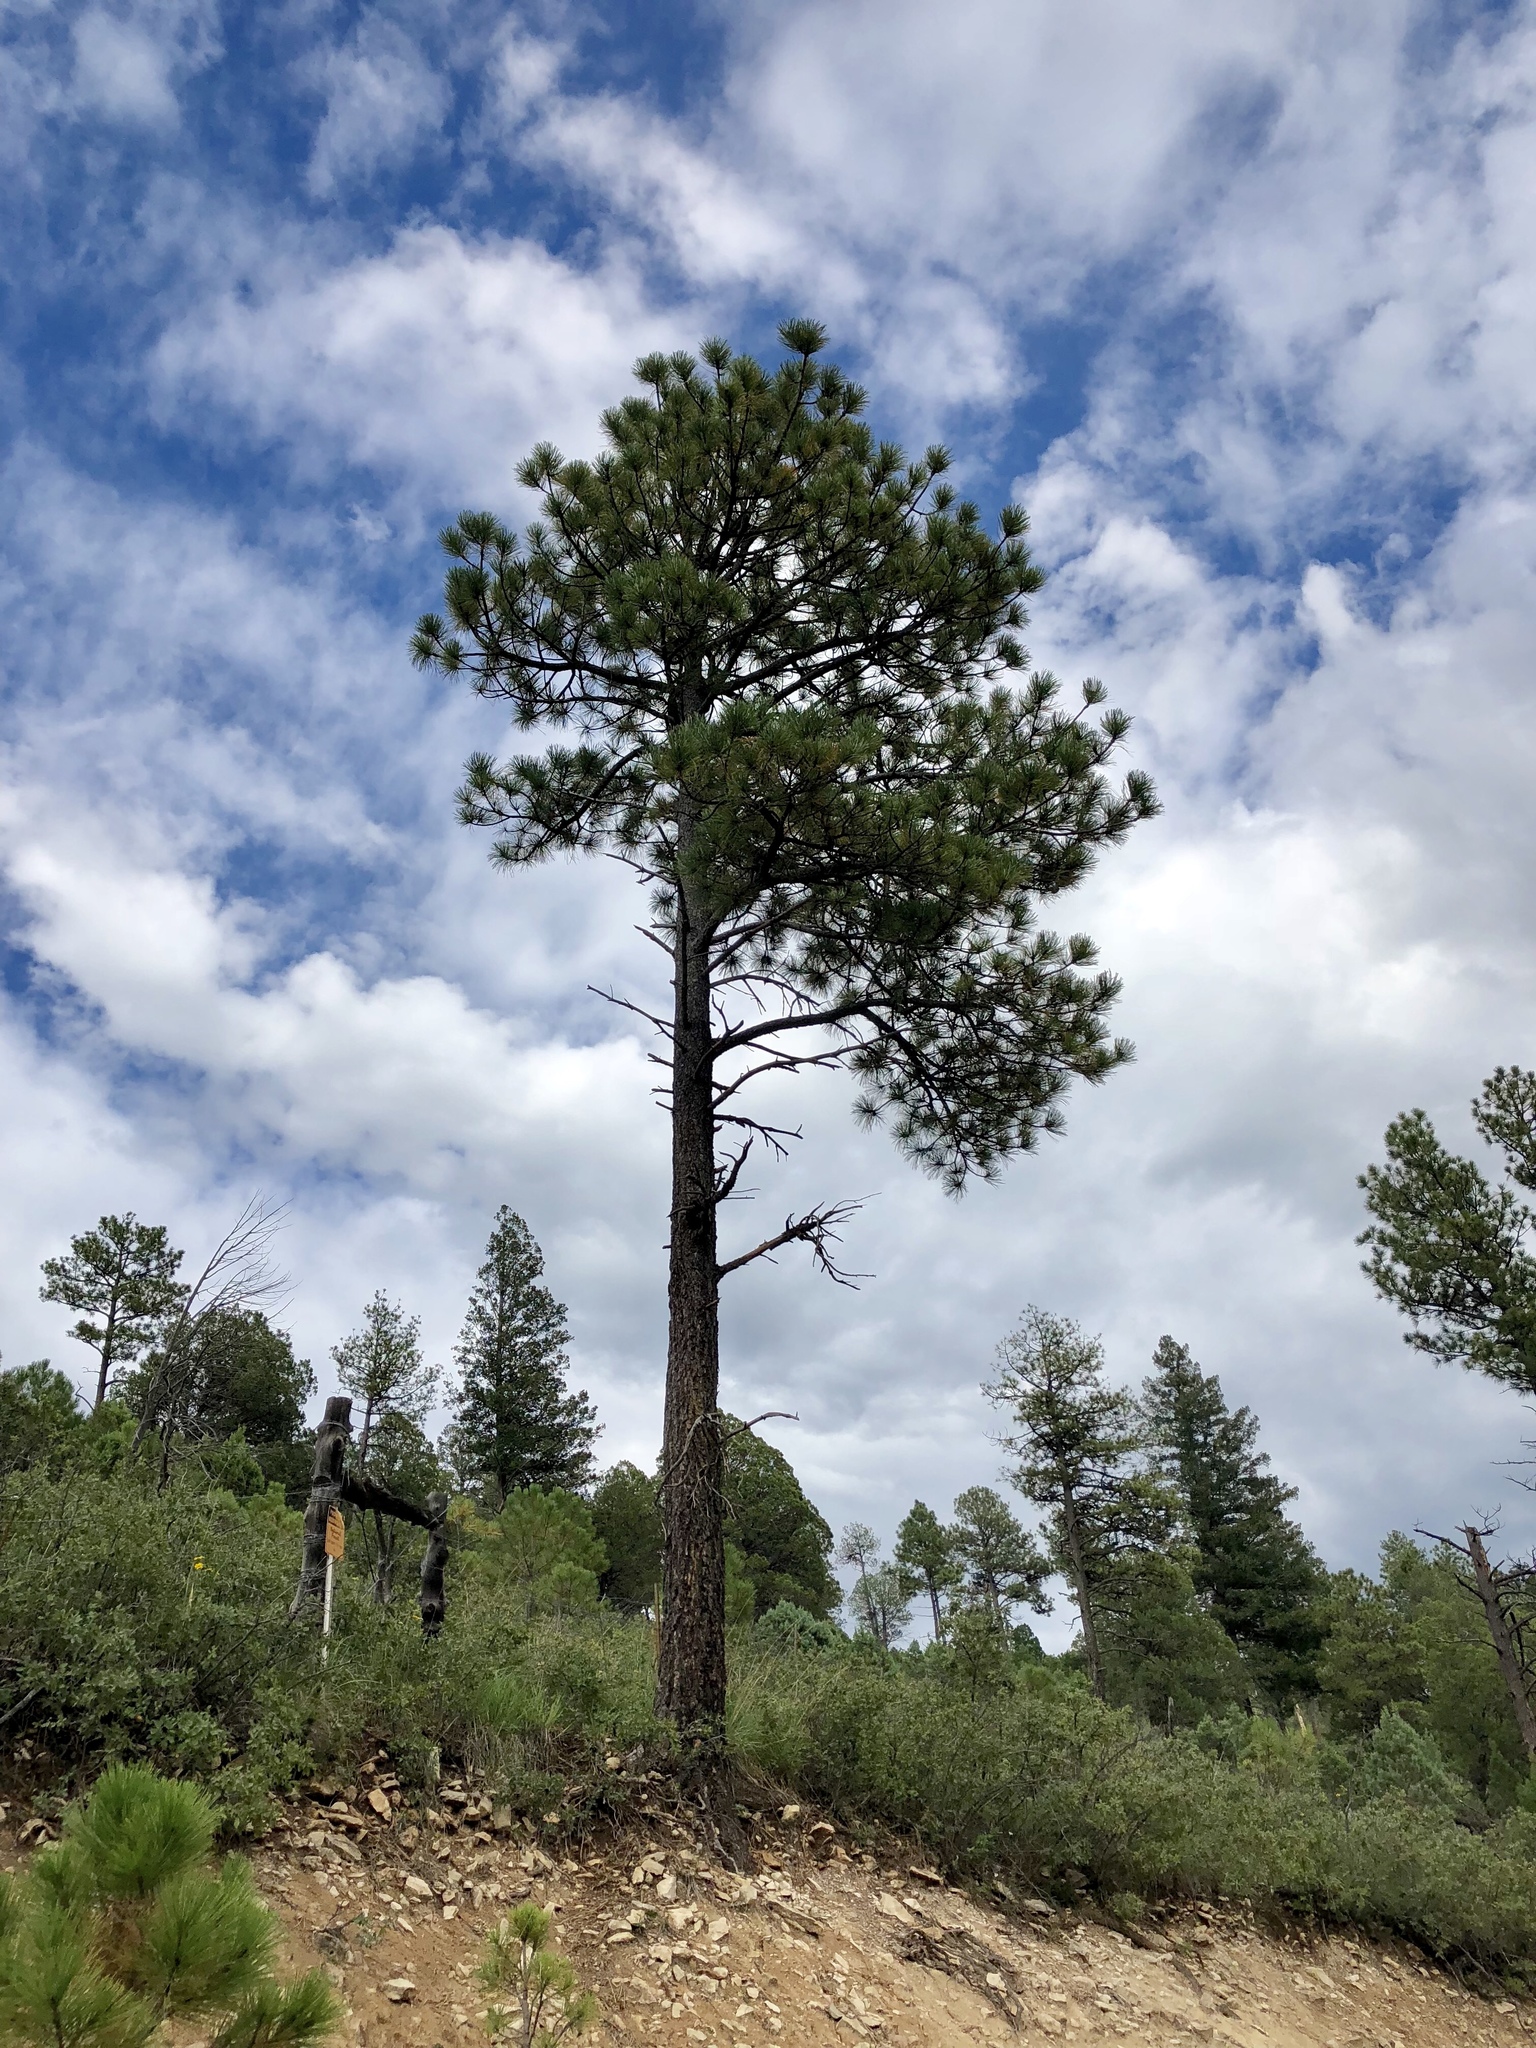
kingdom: Plantae
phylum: Tracheophyta
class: Pinopsida
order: Pinales
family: Pinaceae
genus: Pinus
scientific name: Pinus ponderosa
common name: Western yellow-pine
